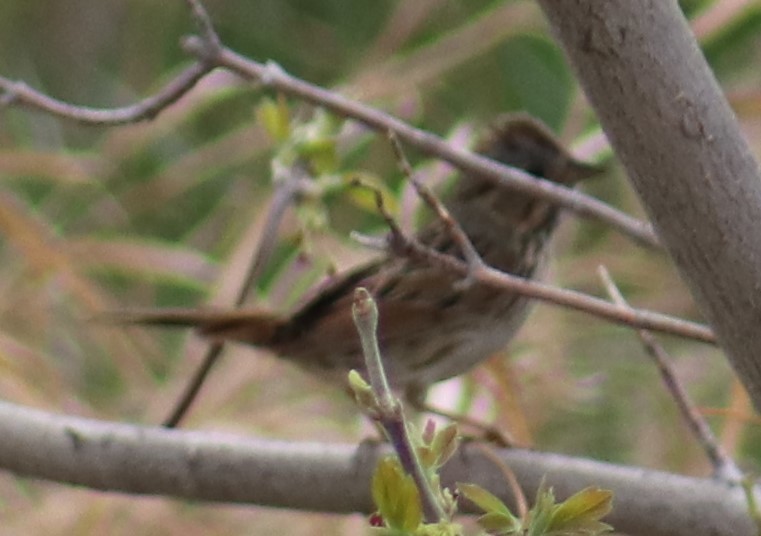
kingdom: Animalia
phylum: Chordata
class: Aves
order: Passeriformes
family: Passerellidae
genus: Melospiza
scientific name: Melospiza lincolnii
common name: Lincoln's sparrow
